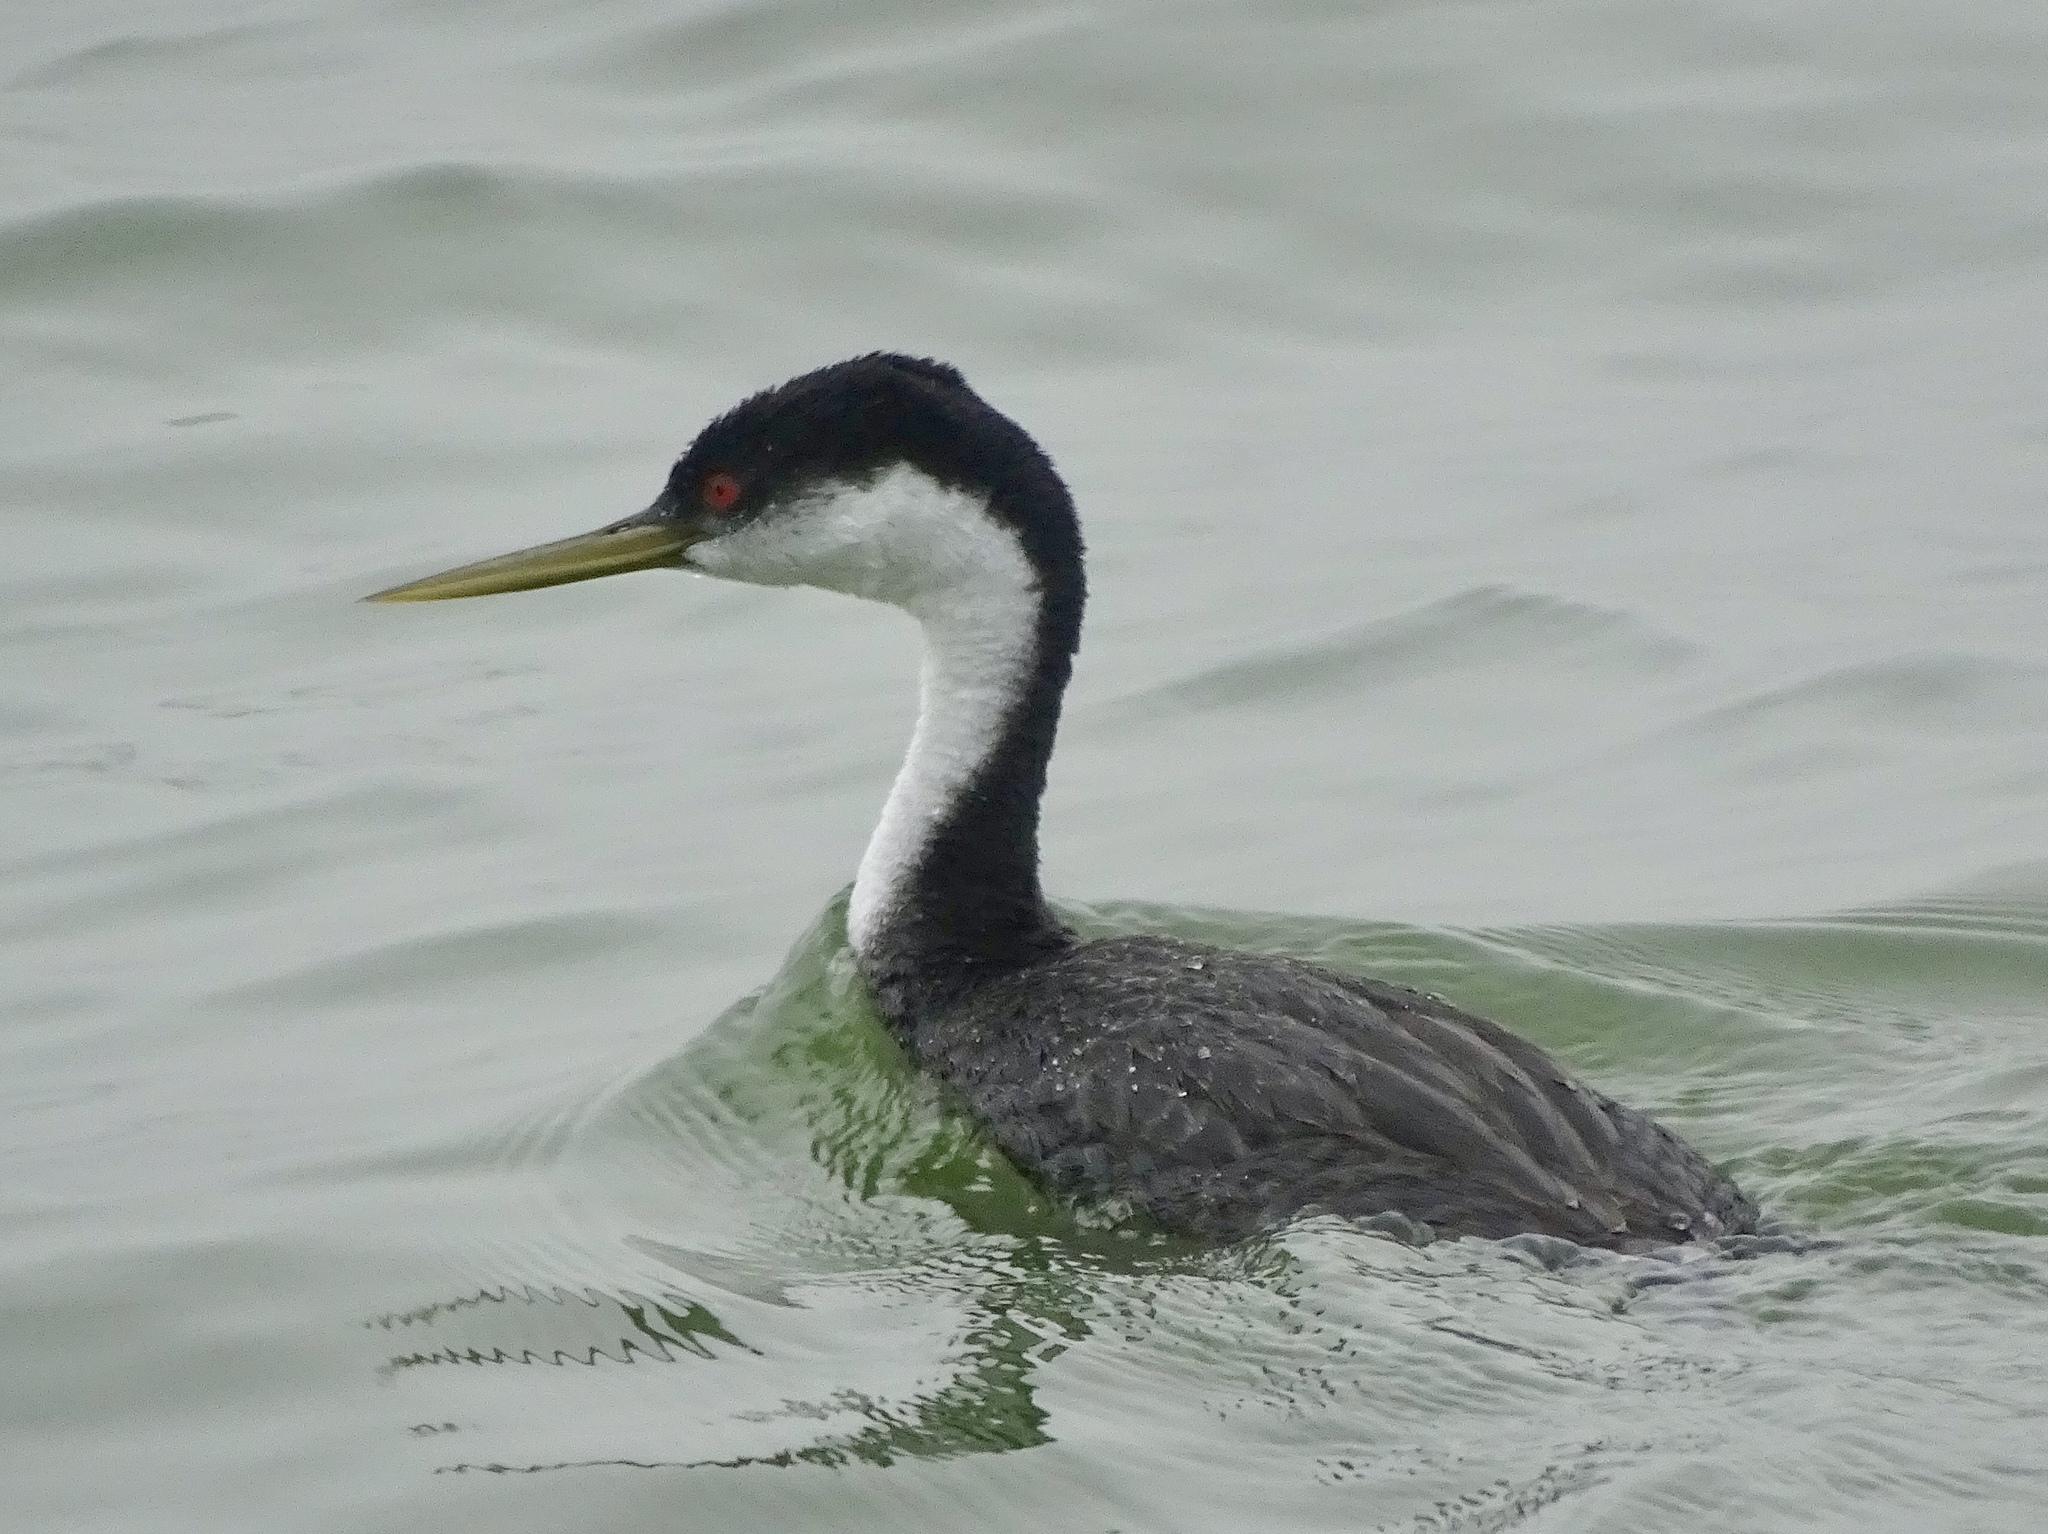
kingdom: Animalia
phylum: Chordata
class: Aves
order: Podicipediformes
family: Podicipedidae
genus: Aechmophorus
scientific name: Aechmophorus occidentalis
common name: Western grebe
